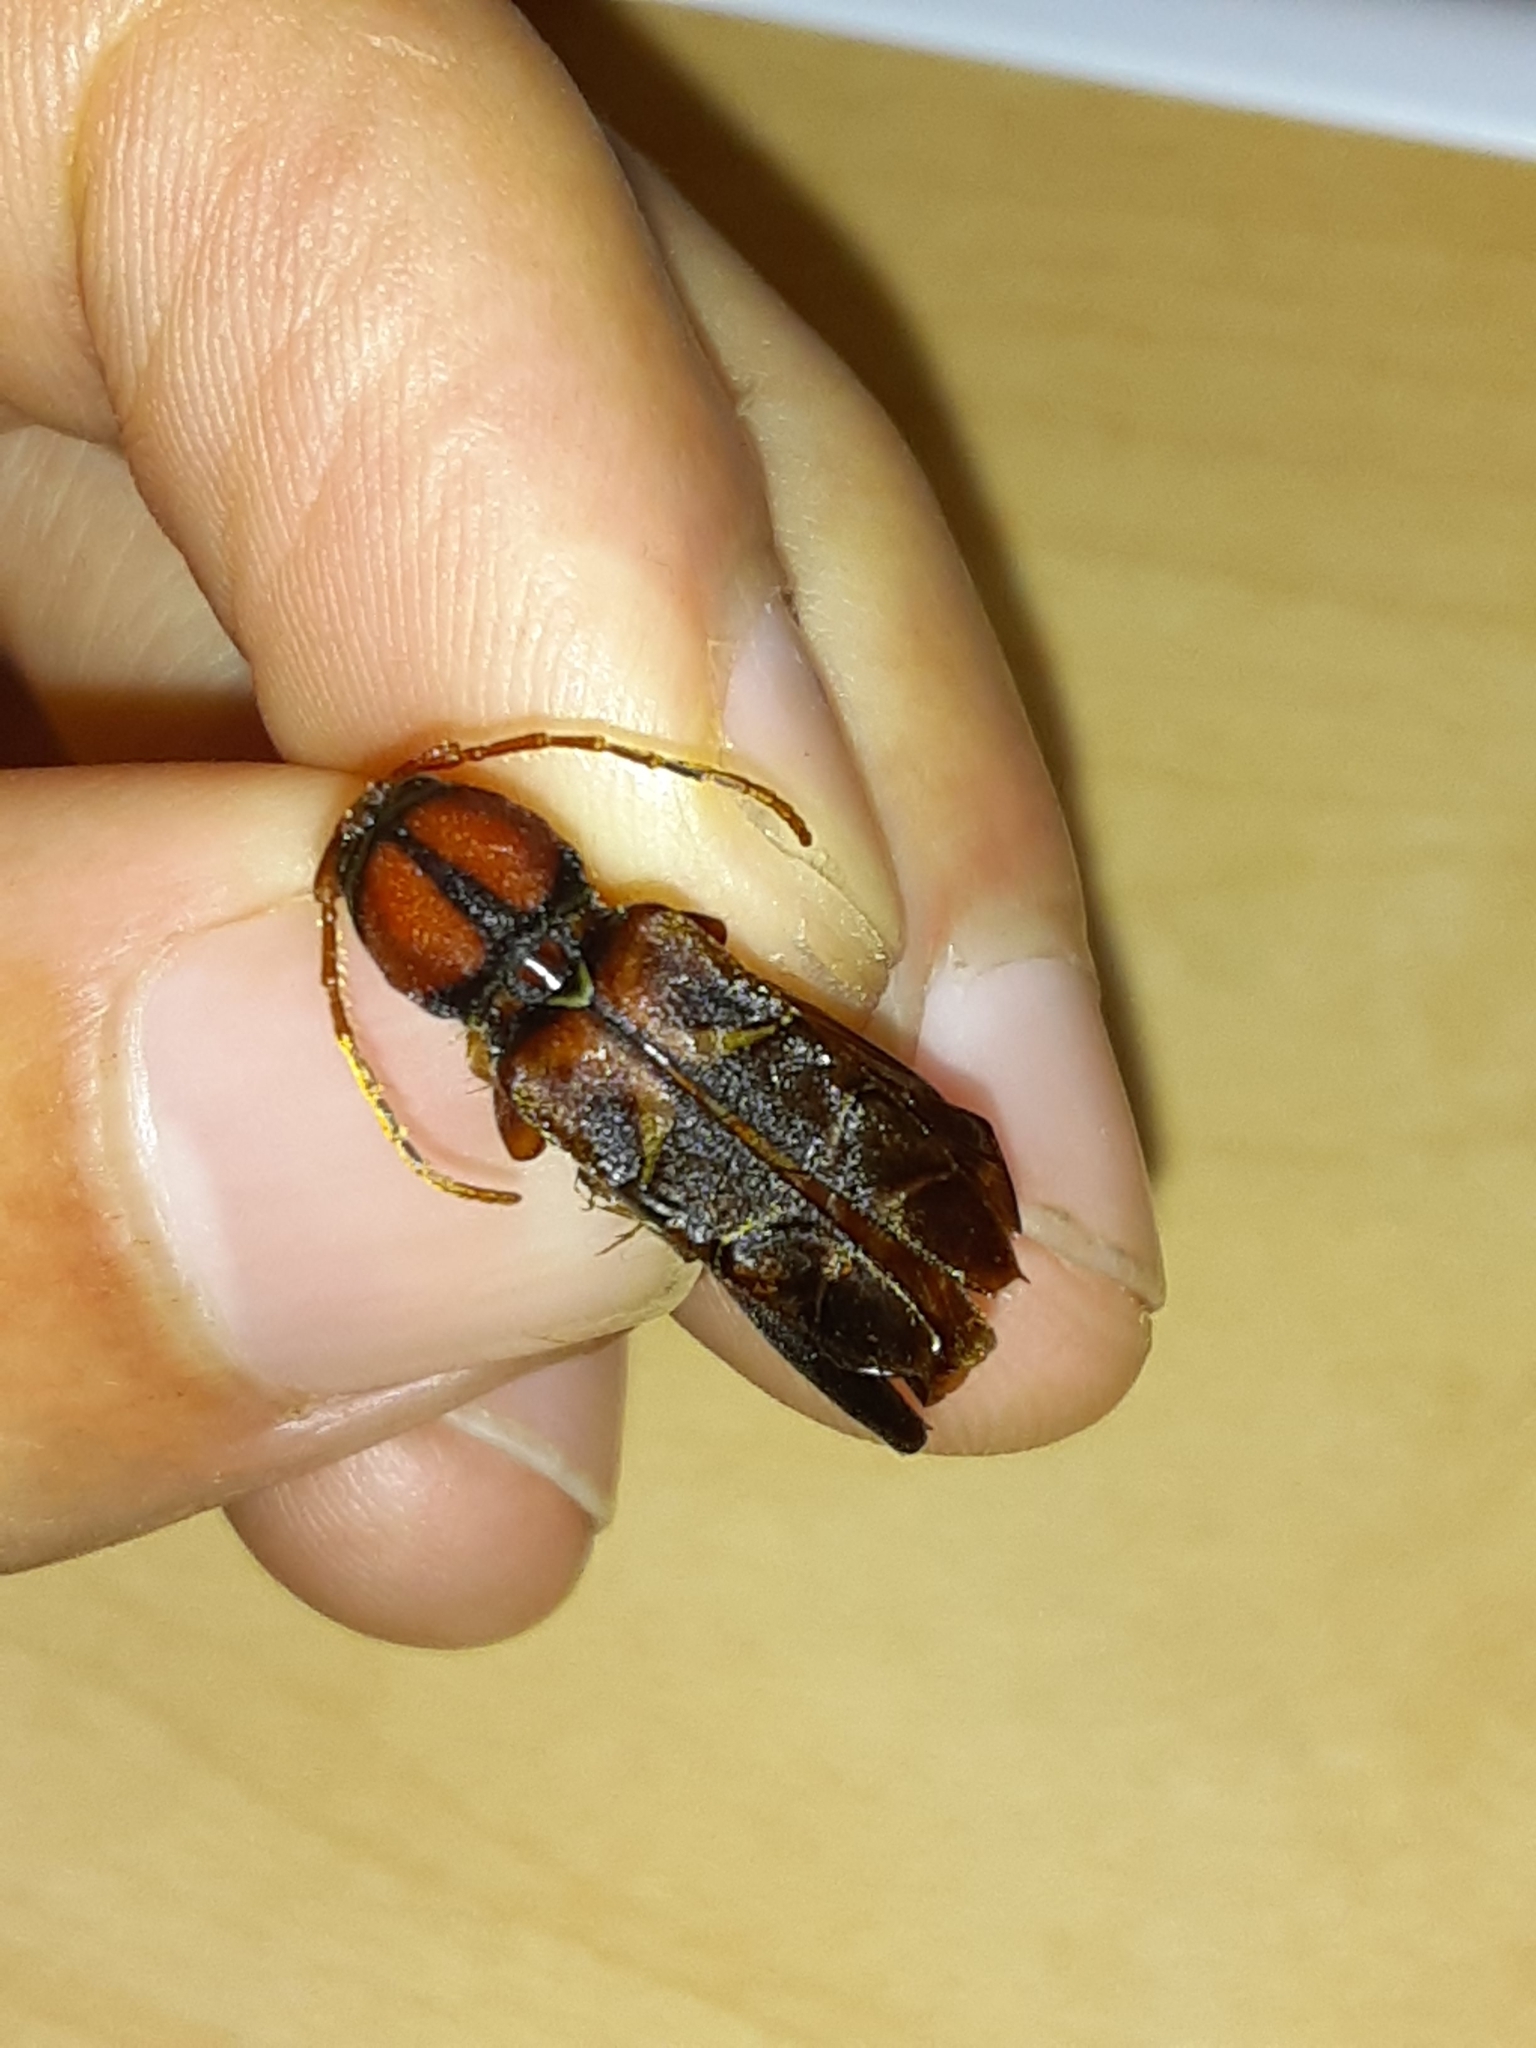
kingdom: Animalia
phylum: Arthropoda
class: Insecta
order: Coleoptera
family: Cerambycidae
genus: Neoclytus
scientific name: Neoclytus mucronatus
